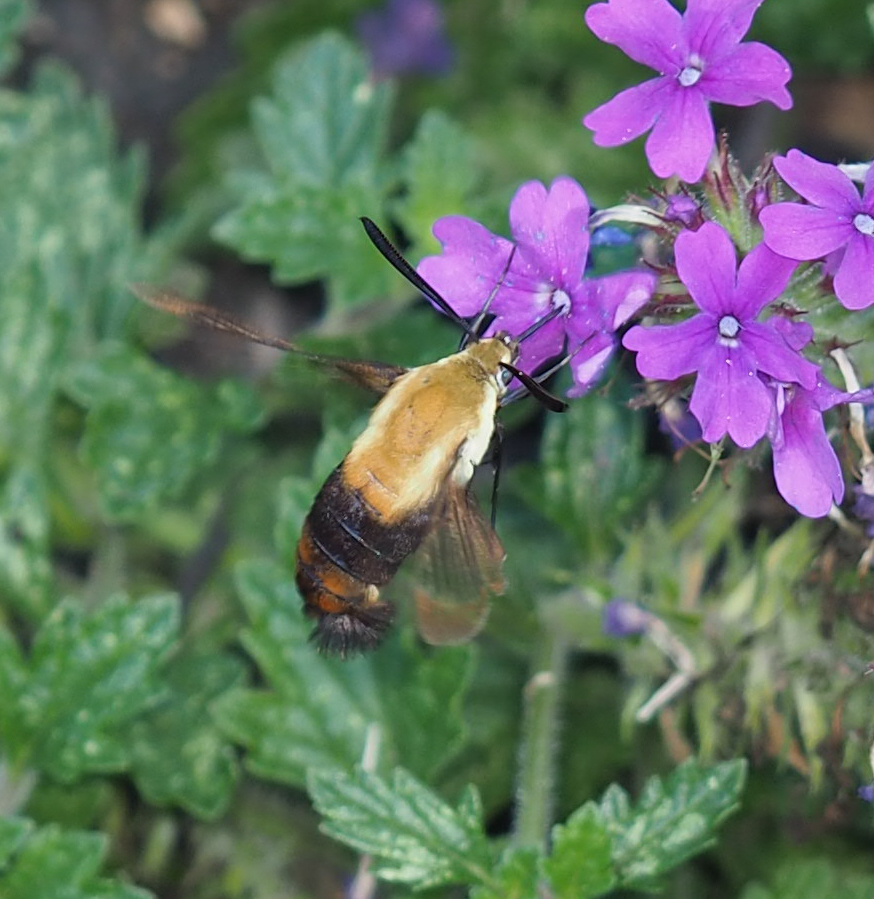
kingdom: Animalia
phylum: Arthropoda
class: Insecta
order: Lepidoptera
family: Sphingidae
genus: Hemaris
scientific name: Hemaris diffinis
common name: Bumblebee moth
